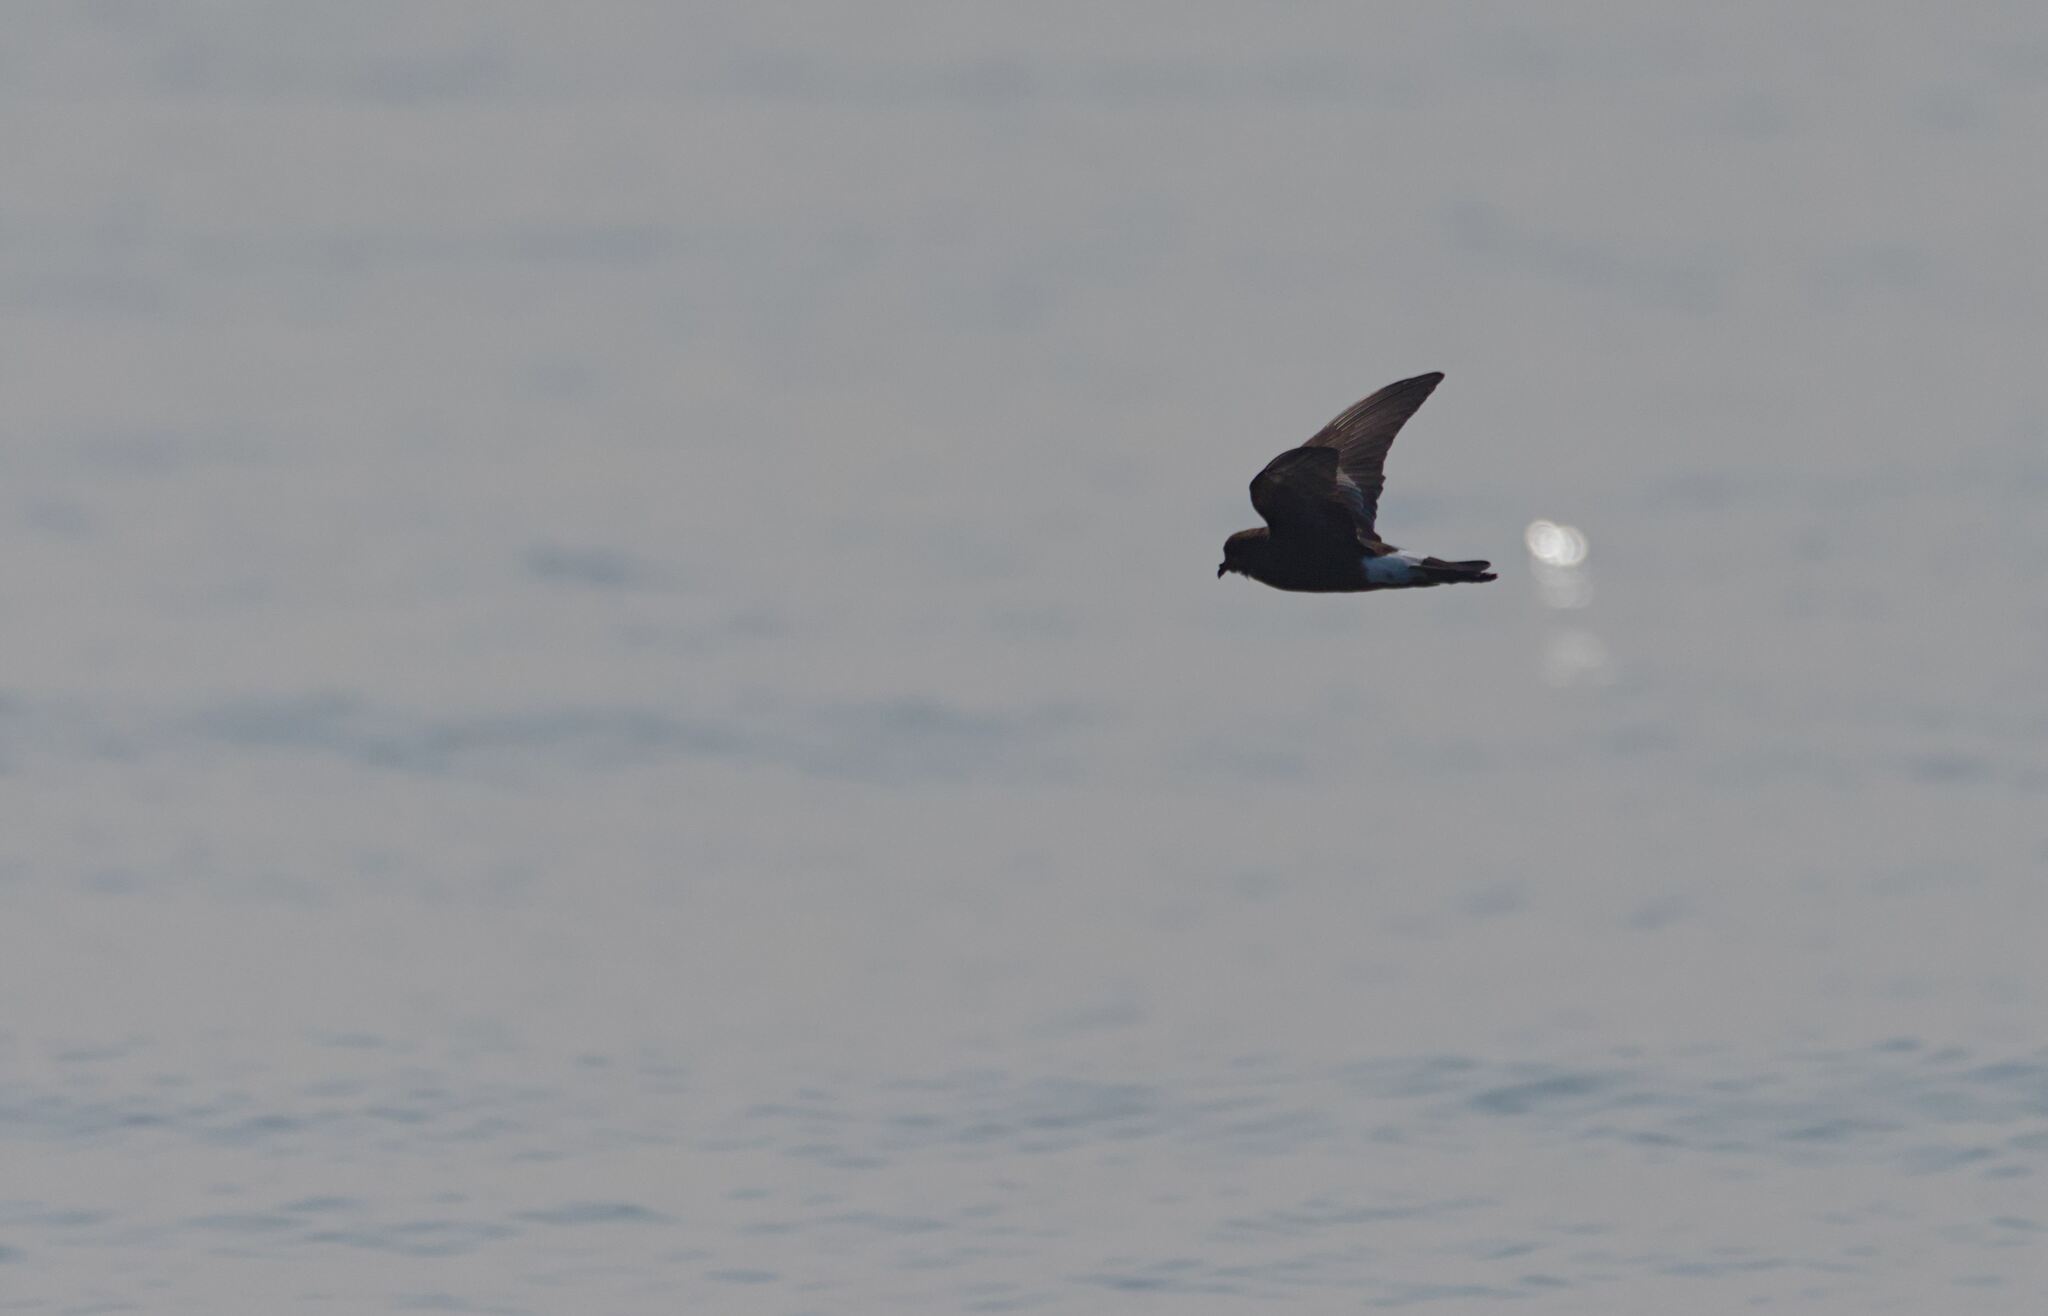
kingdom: Animalia
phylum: Chordata
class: Aves
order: Procellariiformes
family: Hydrobatidae
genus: Oceanites
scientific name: Oceanites oceanicus
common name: Wilson's storm petrel
